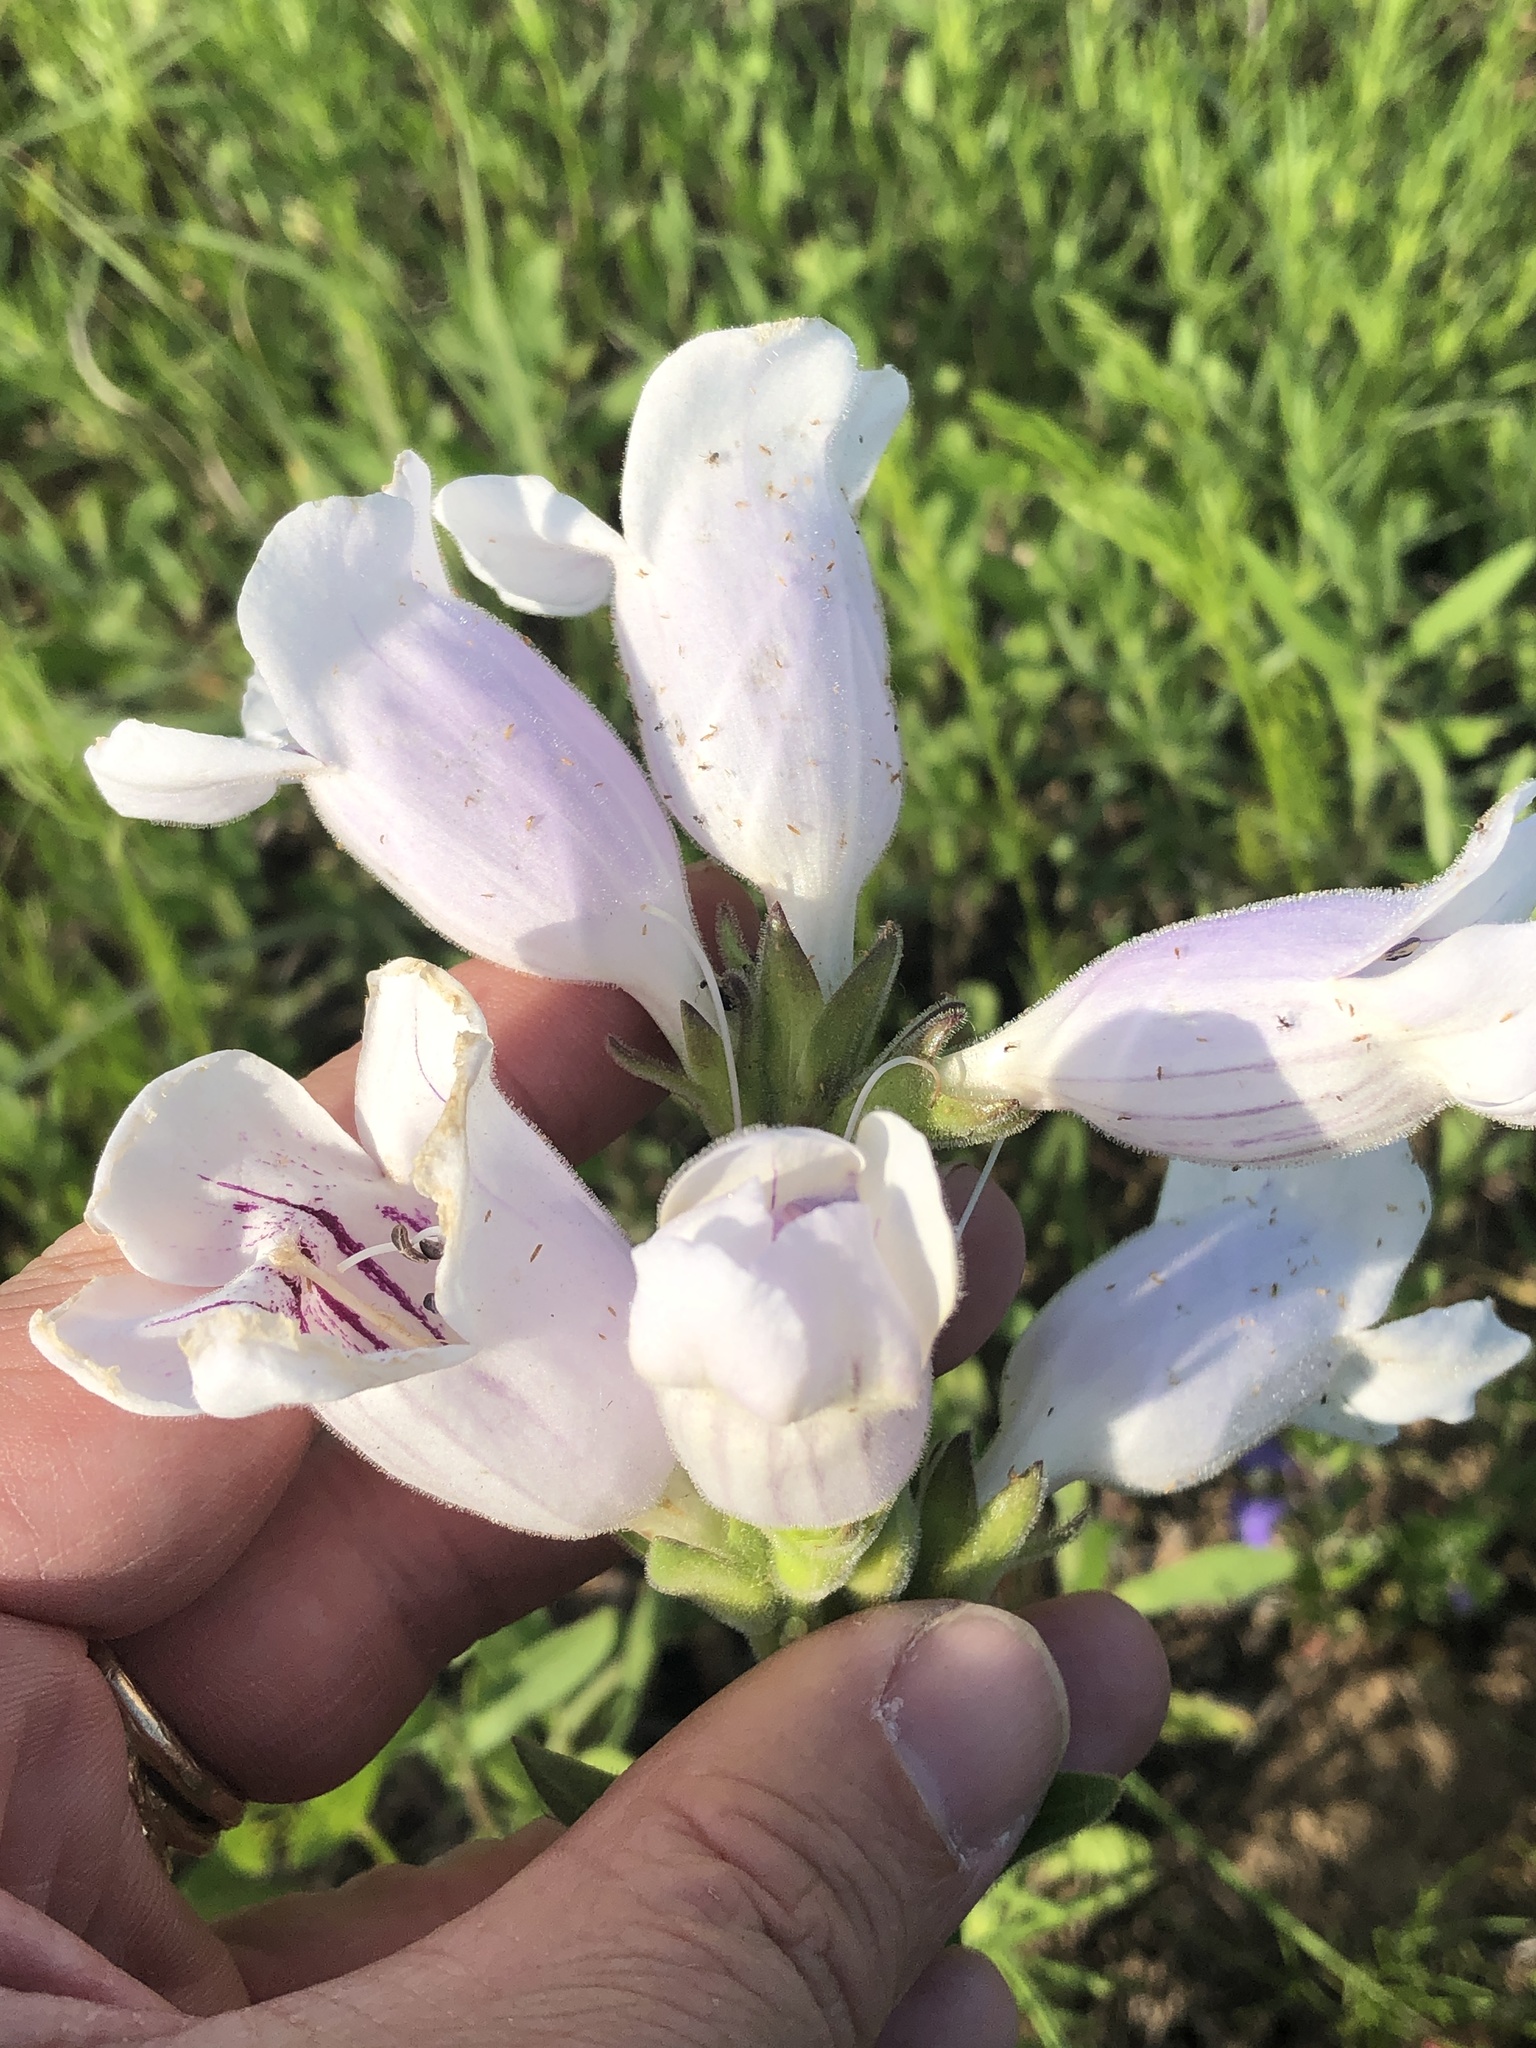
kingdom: Plantae
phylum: Tracheophyta
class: Magnoliopsida
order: Lamiales
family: Plantaginaceae
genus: Penstemon
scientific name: Penstemon cobaea
